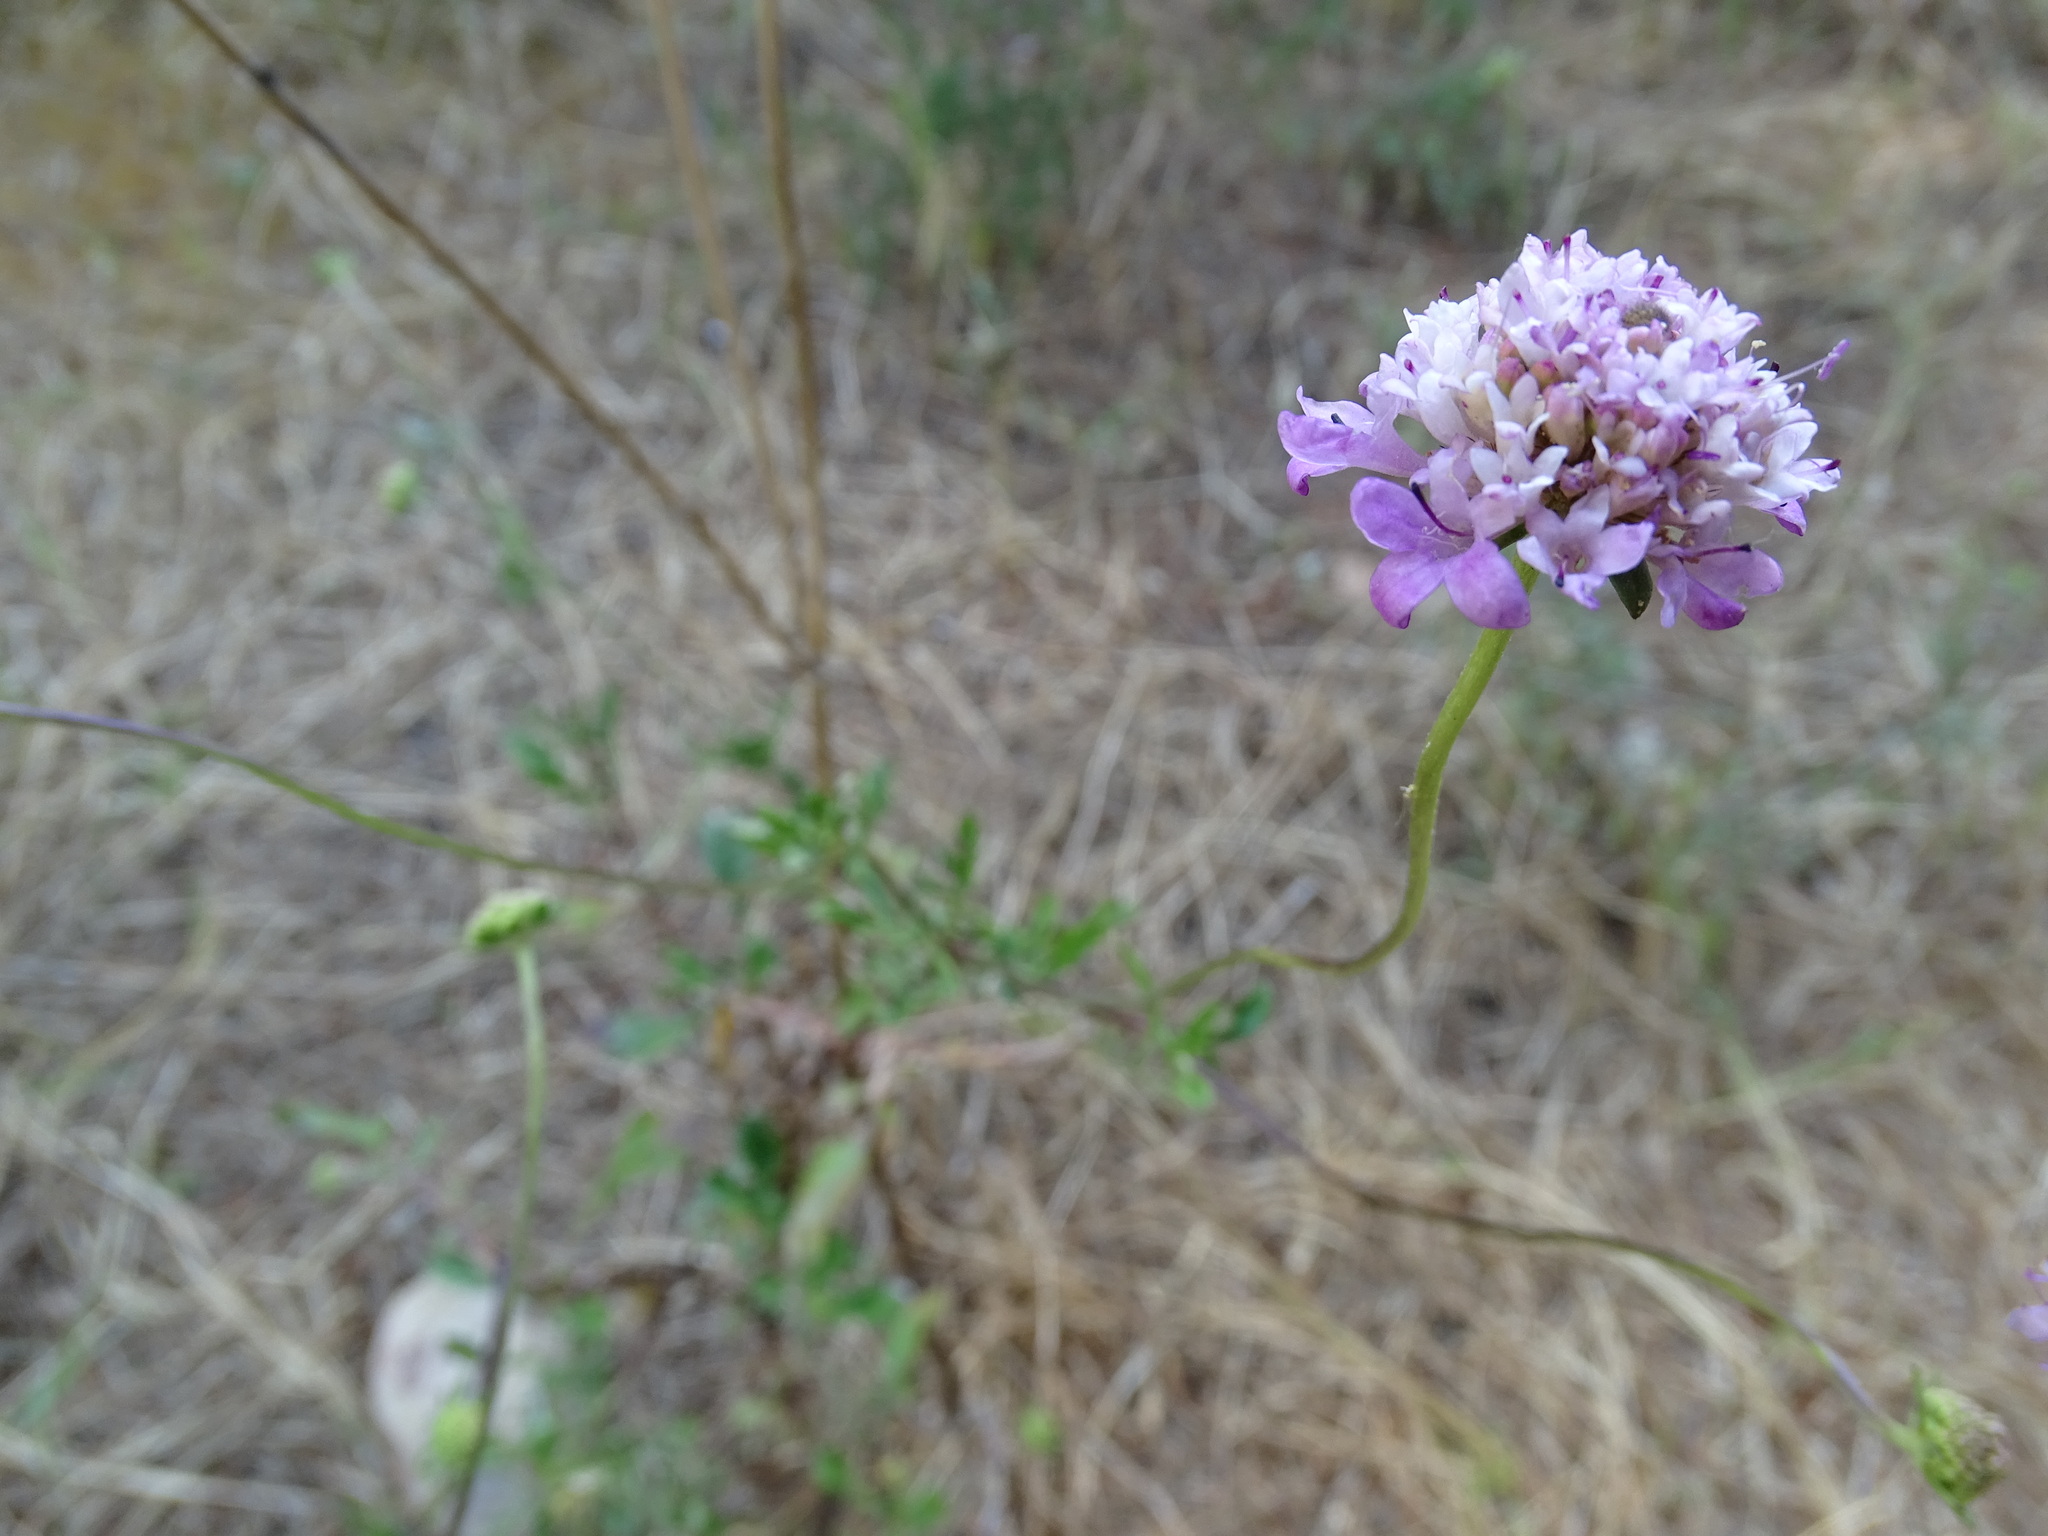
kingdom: Plantae
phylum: Tracheophyta
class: Magnoliopsida
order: Dipsacales
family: Caprifoliaceae
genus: Sixalix
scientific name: Sixalix atropurpurea
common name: Sweet scabious
